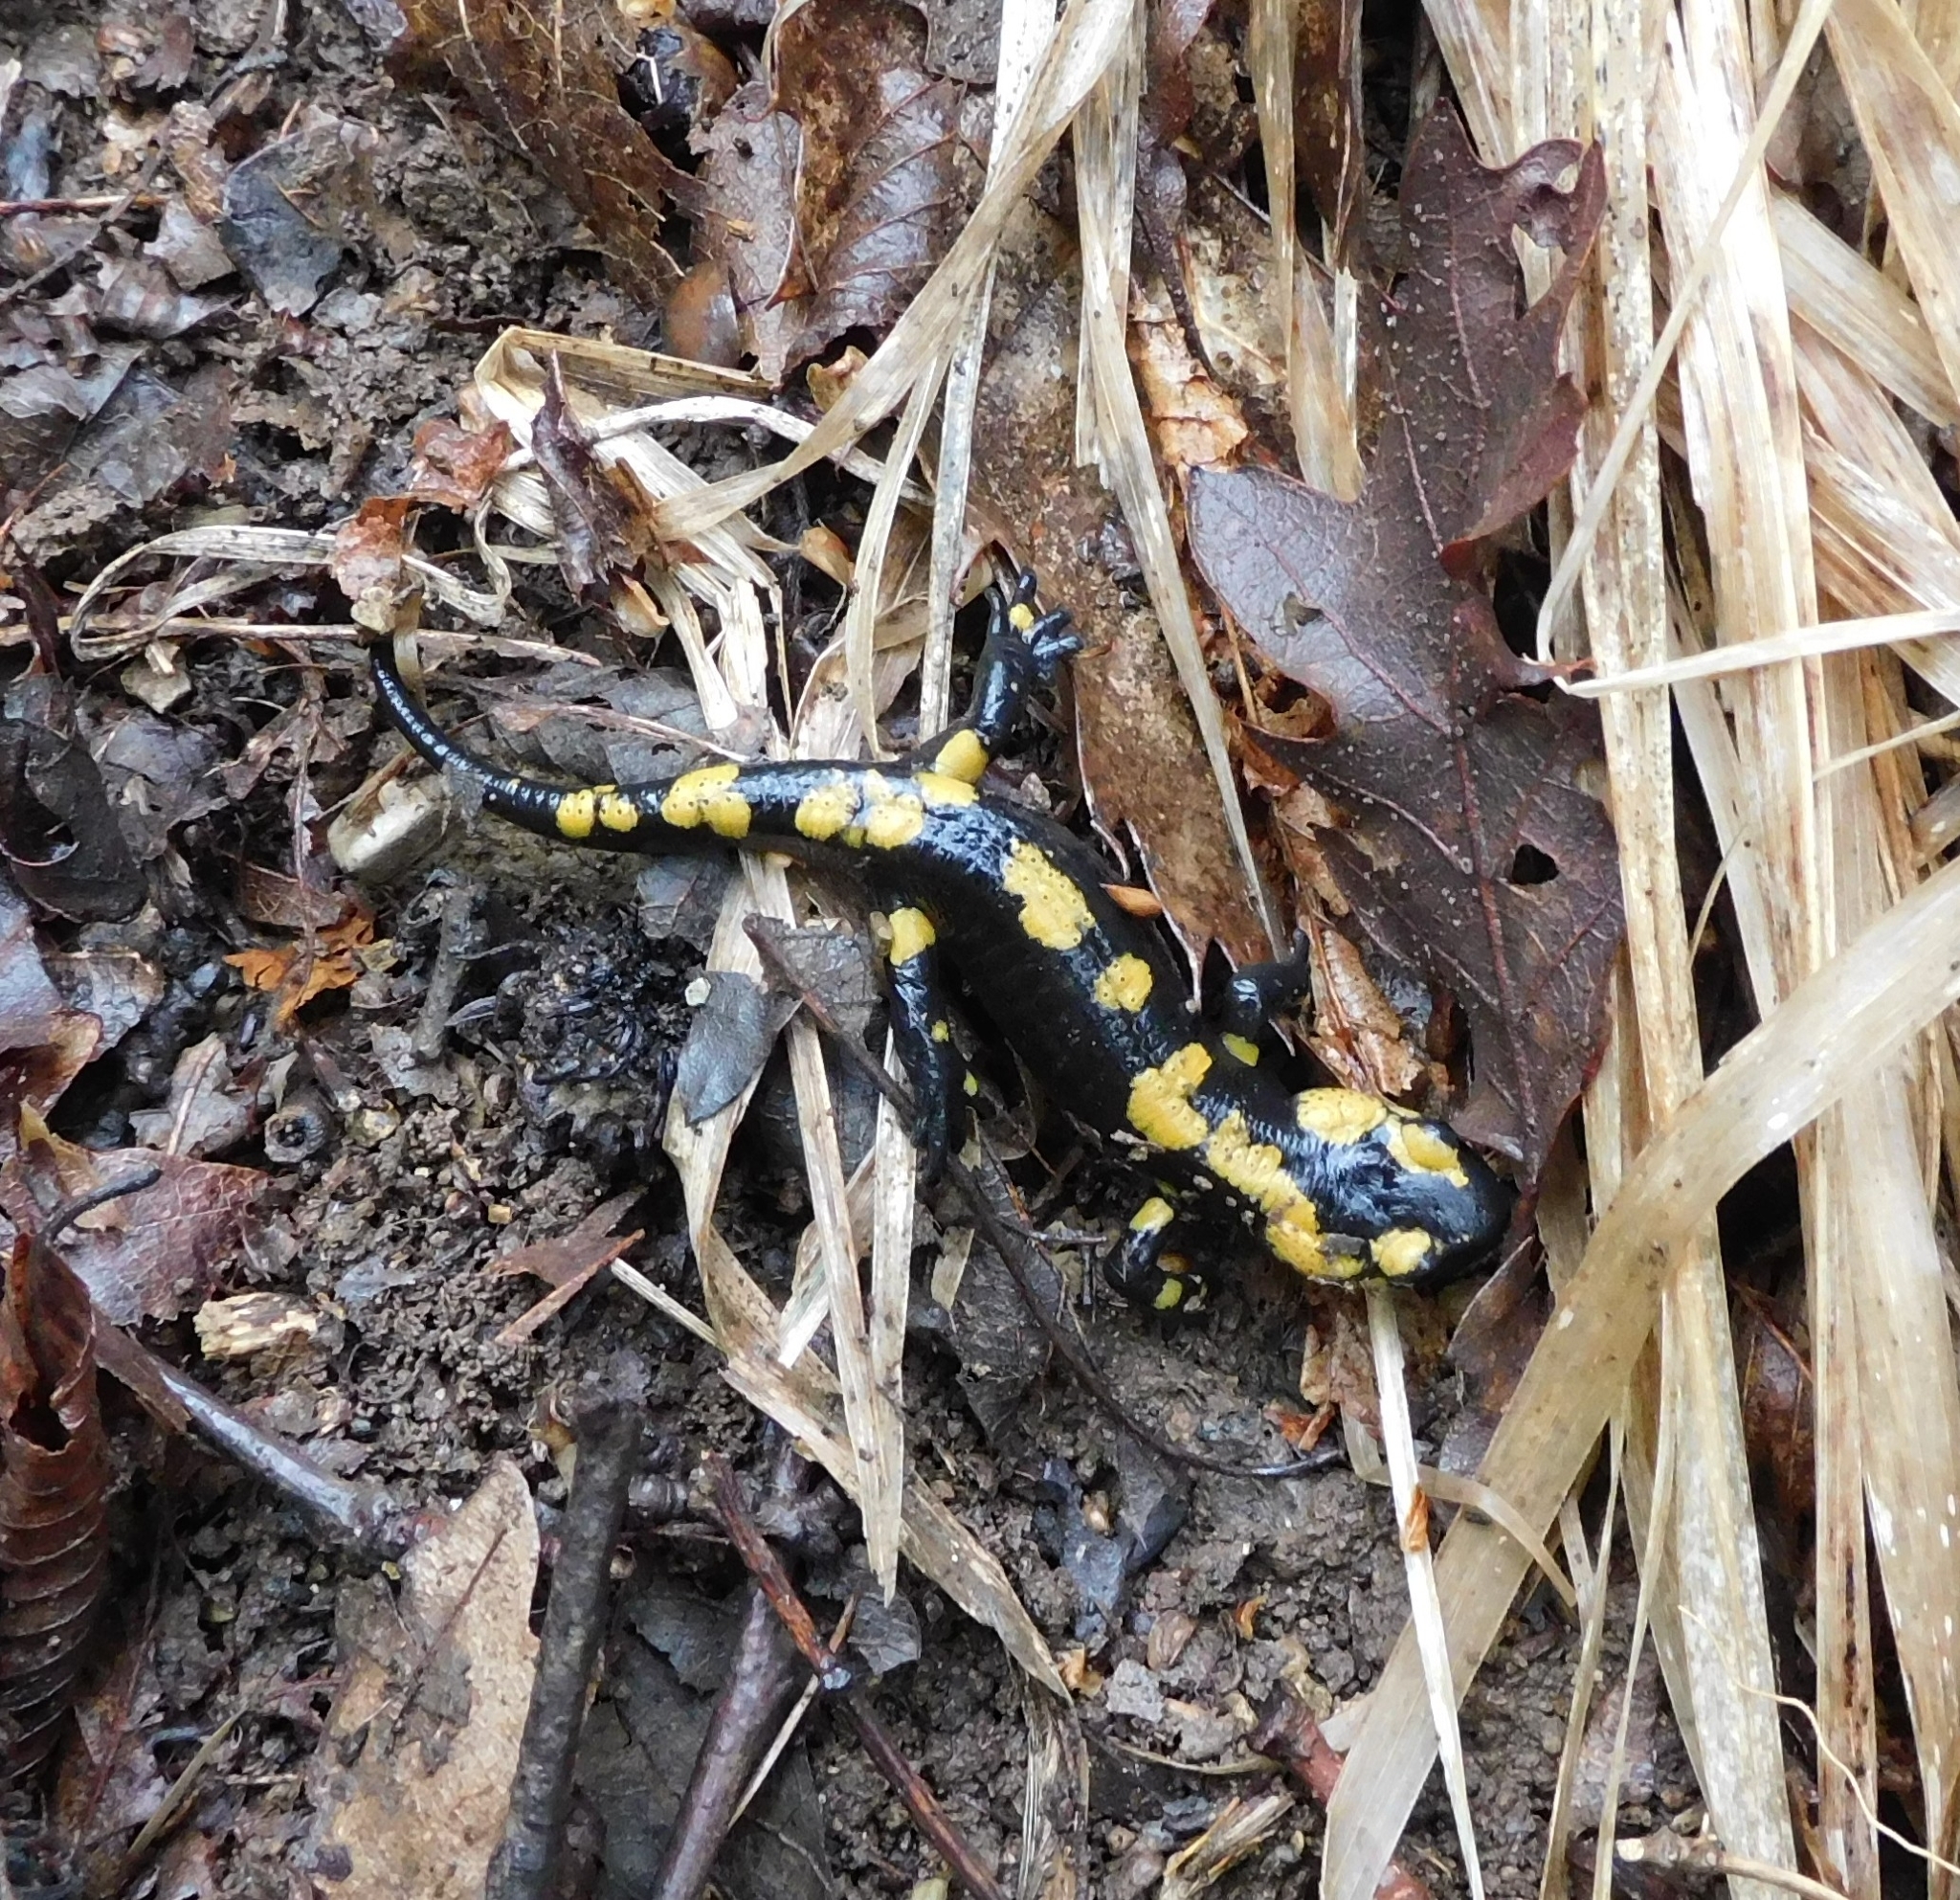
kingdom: Animalia
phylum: Chordata
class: Amphibia
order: Caudata
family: Salamandridae
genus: Salamandra
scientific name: Salamandra salamandra
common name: Fire salamander
